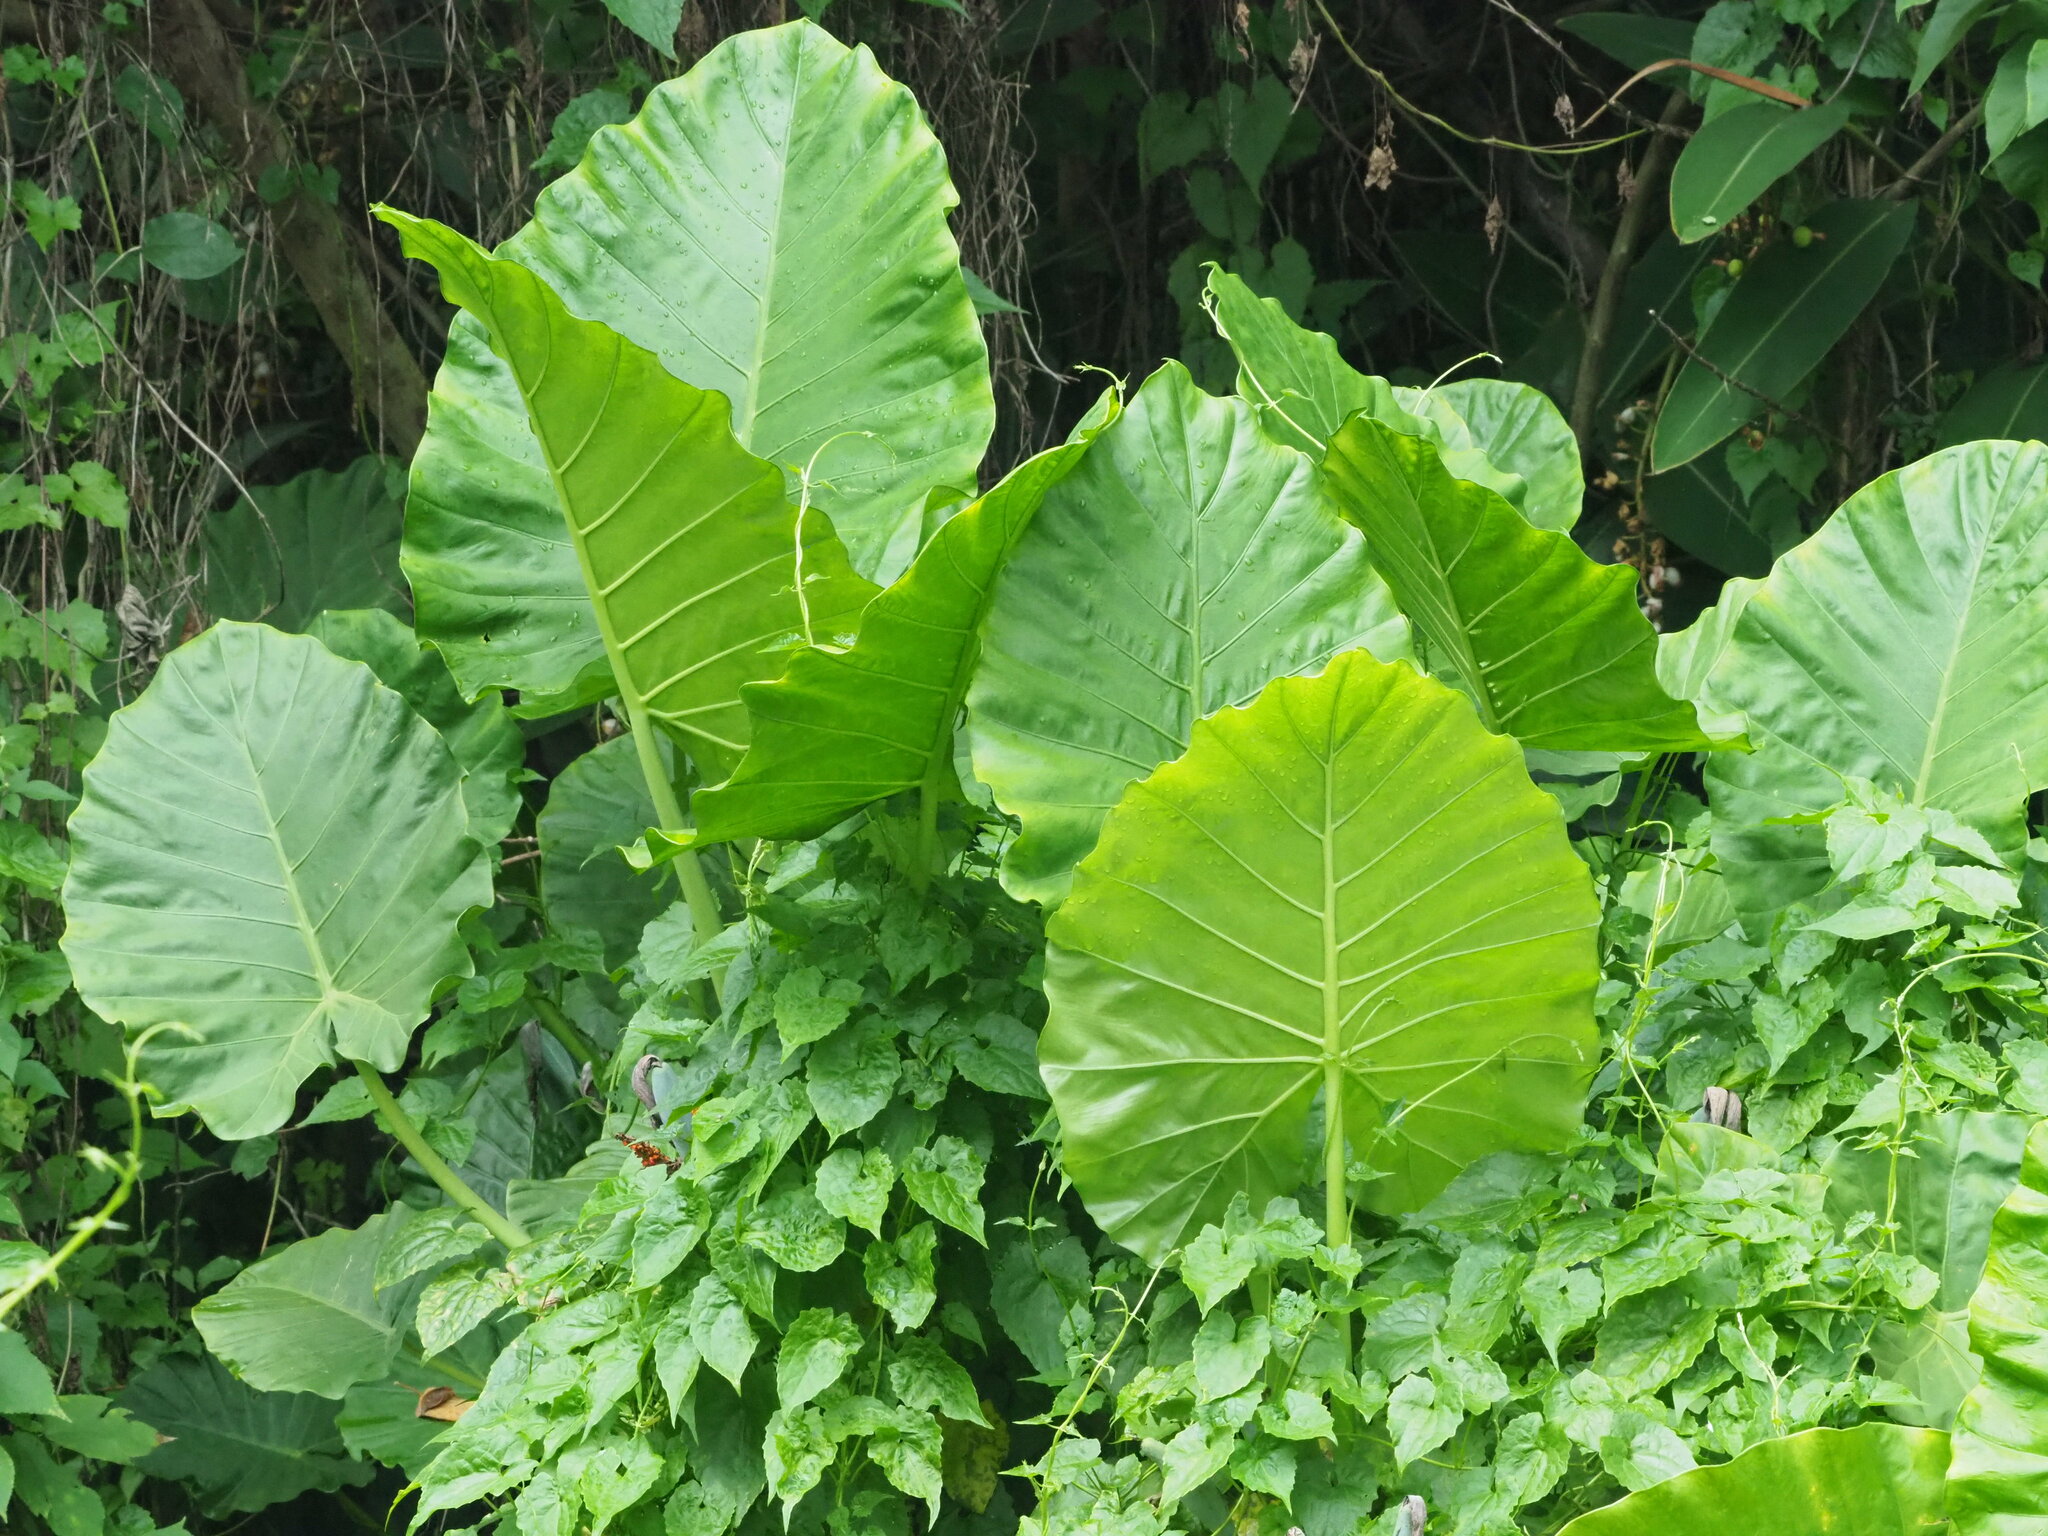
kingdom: Plantae
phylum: Tracheophyta
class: Liliopsida
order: Alismatales
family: Araceae
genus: Alocasia
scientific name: Alocasia odora
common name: Asian taro
